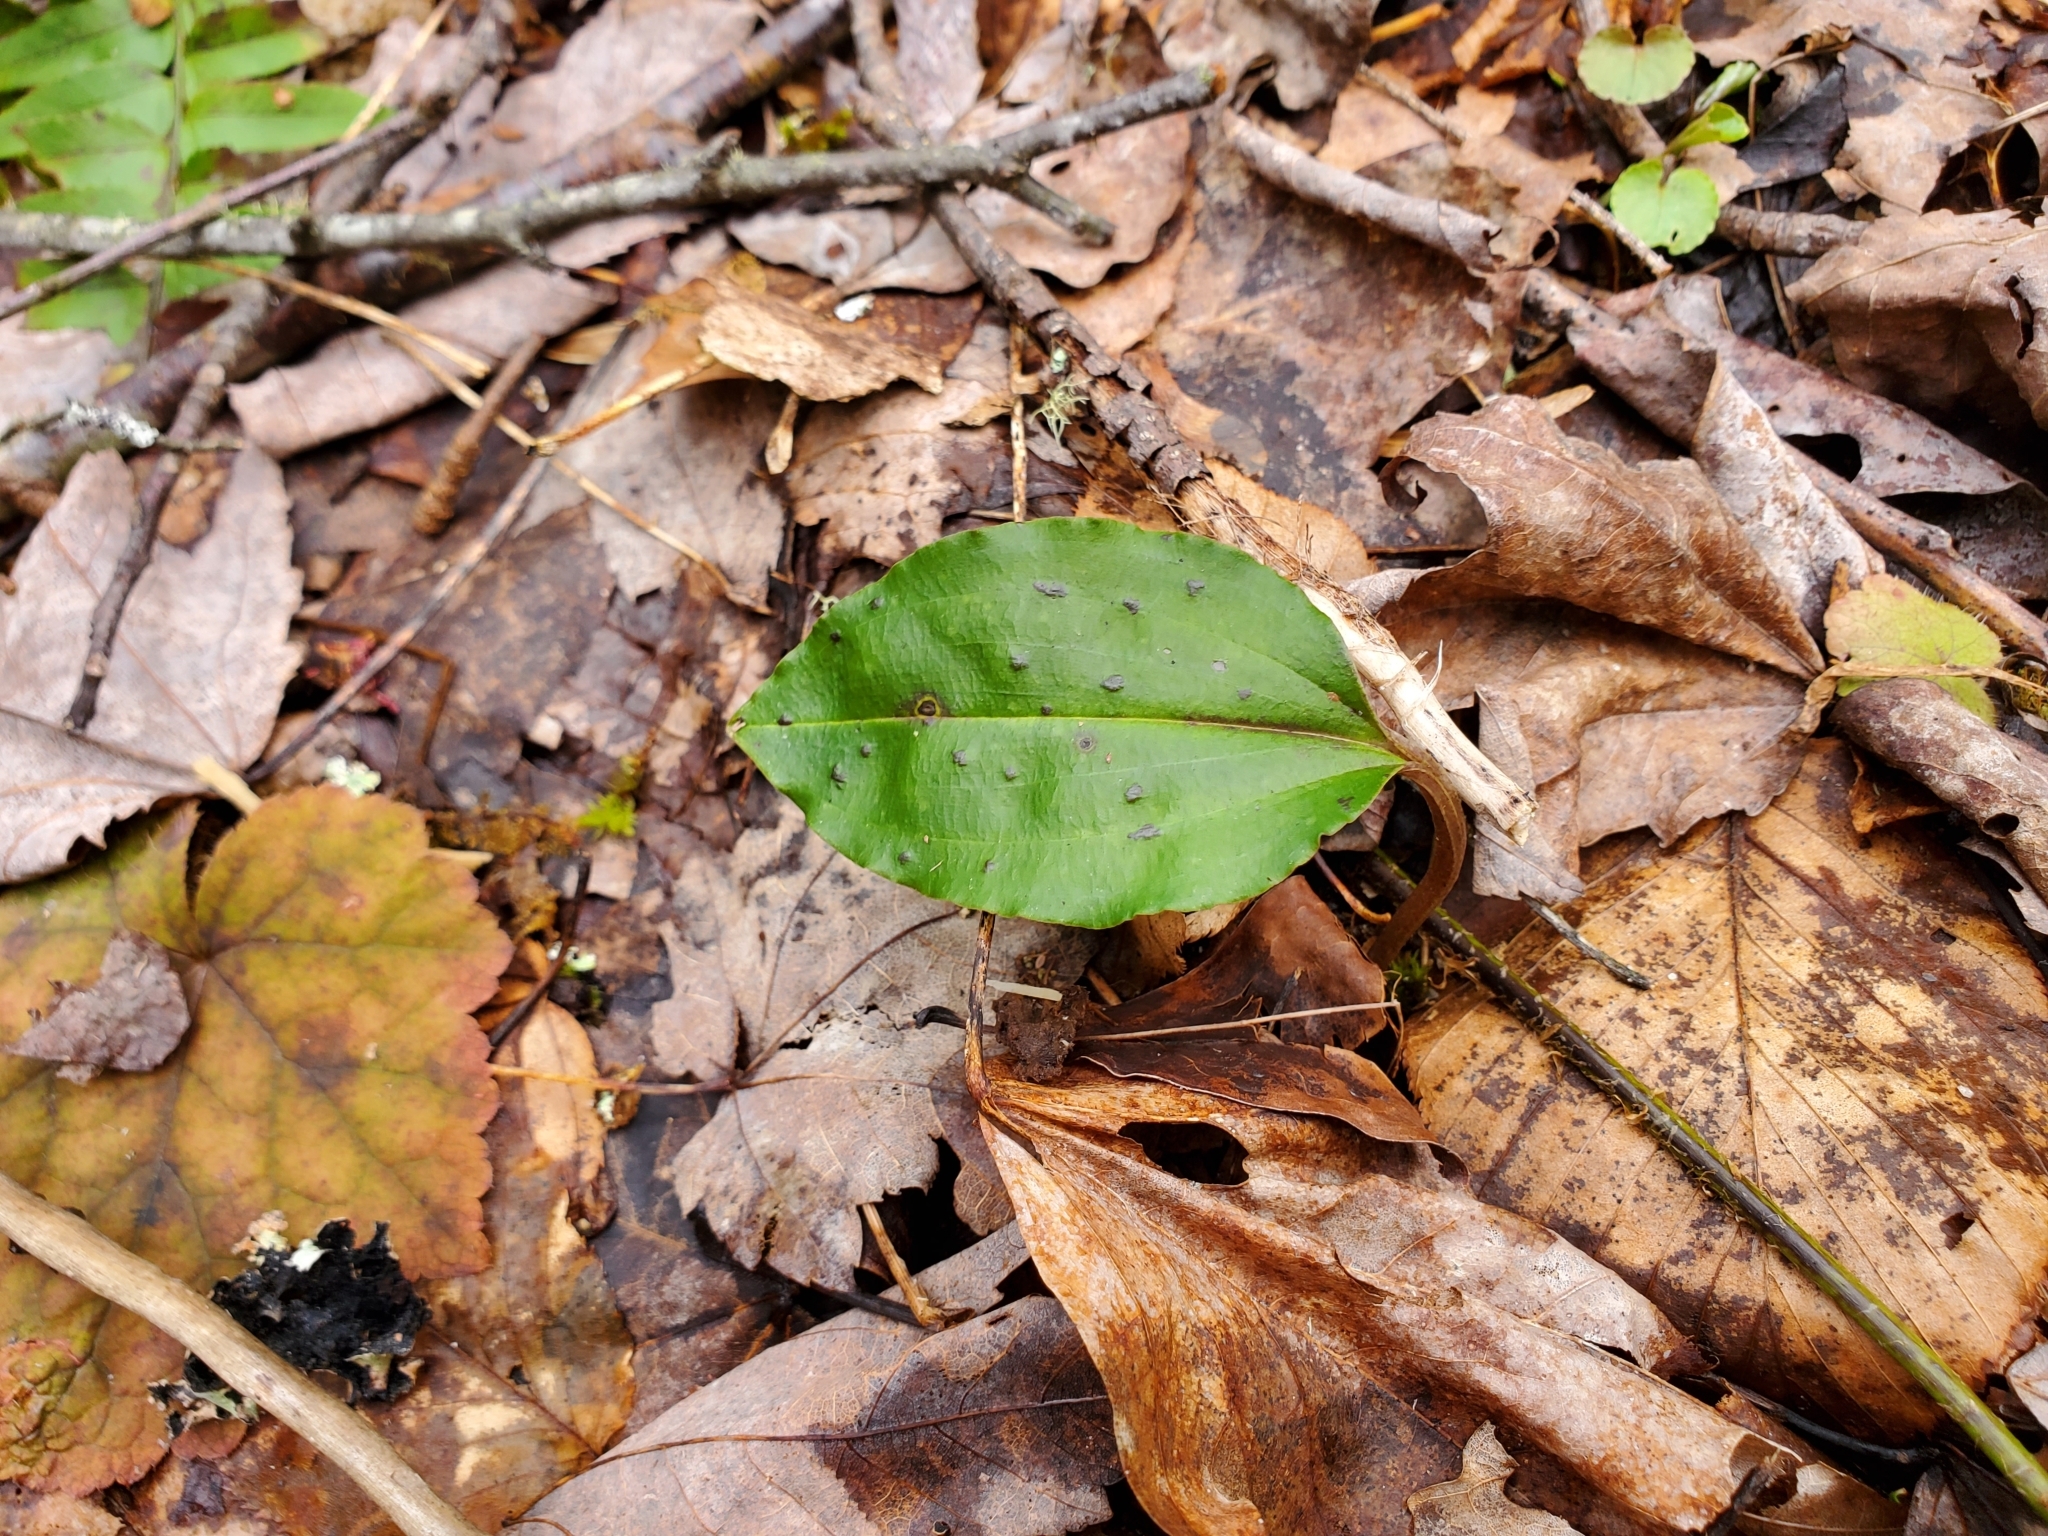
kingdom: Plantae
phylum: Tracheophyta
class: Liliopsida
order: Asparagales
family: Orchidaceae
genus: Tipularia
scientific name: Tipularia discolor
